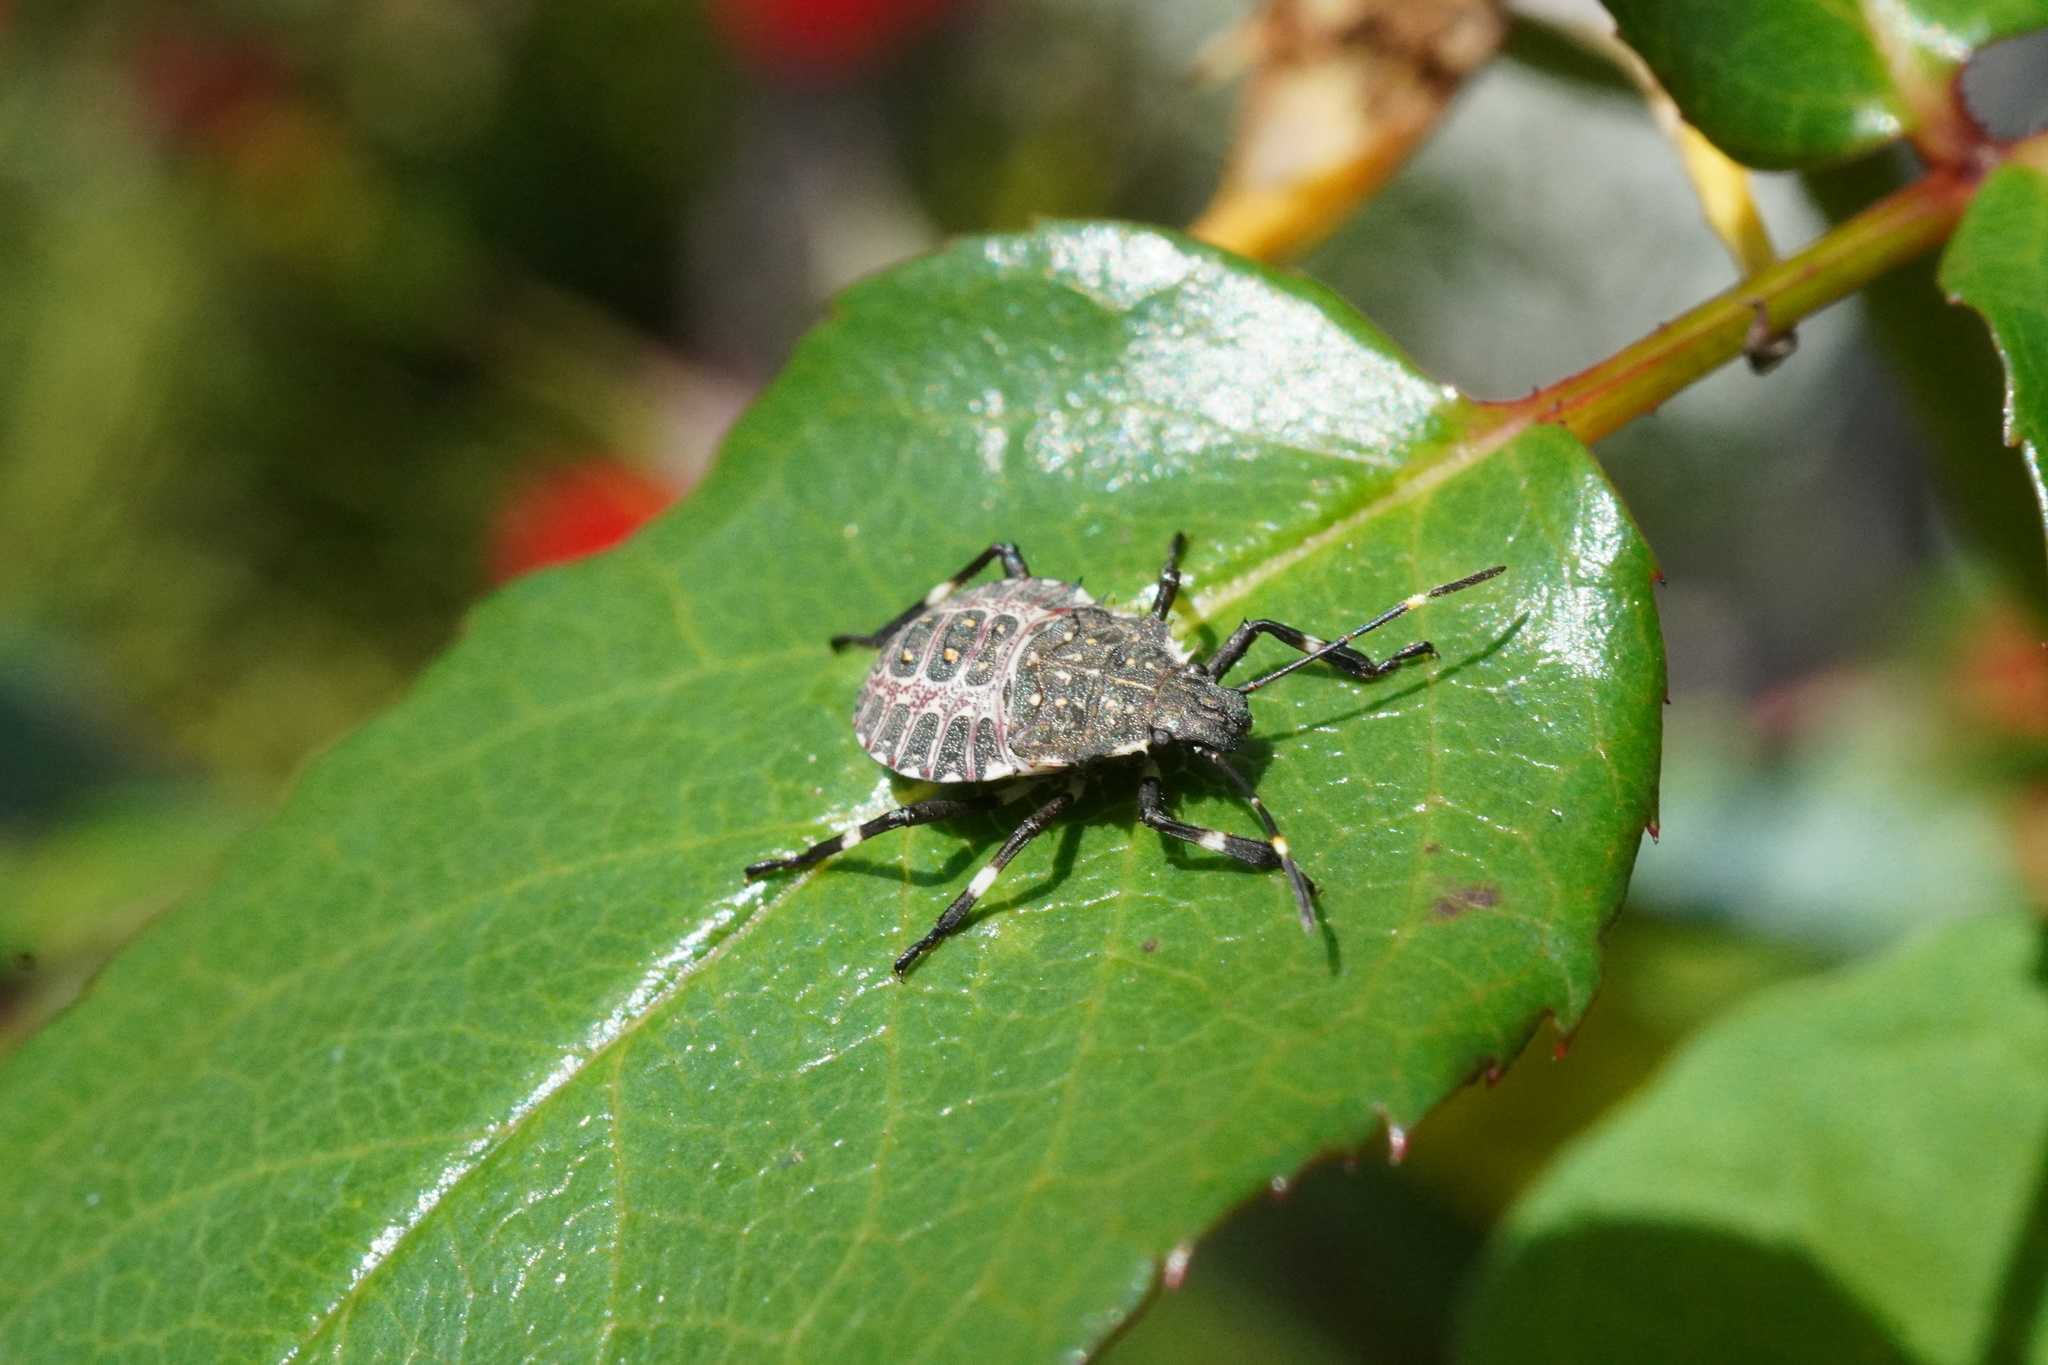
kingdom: Animalia
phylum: Arthropoda
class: Insecta
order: Hemiptera
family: Pentatomidae
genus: Halyomorpha
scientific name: Halyomorpha halys
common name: Brown marmorated stink bug
